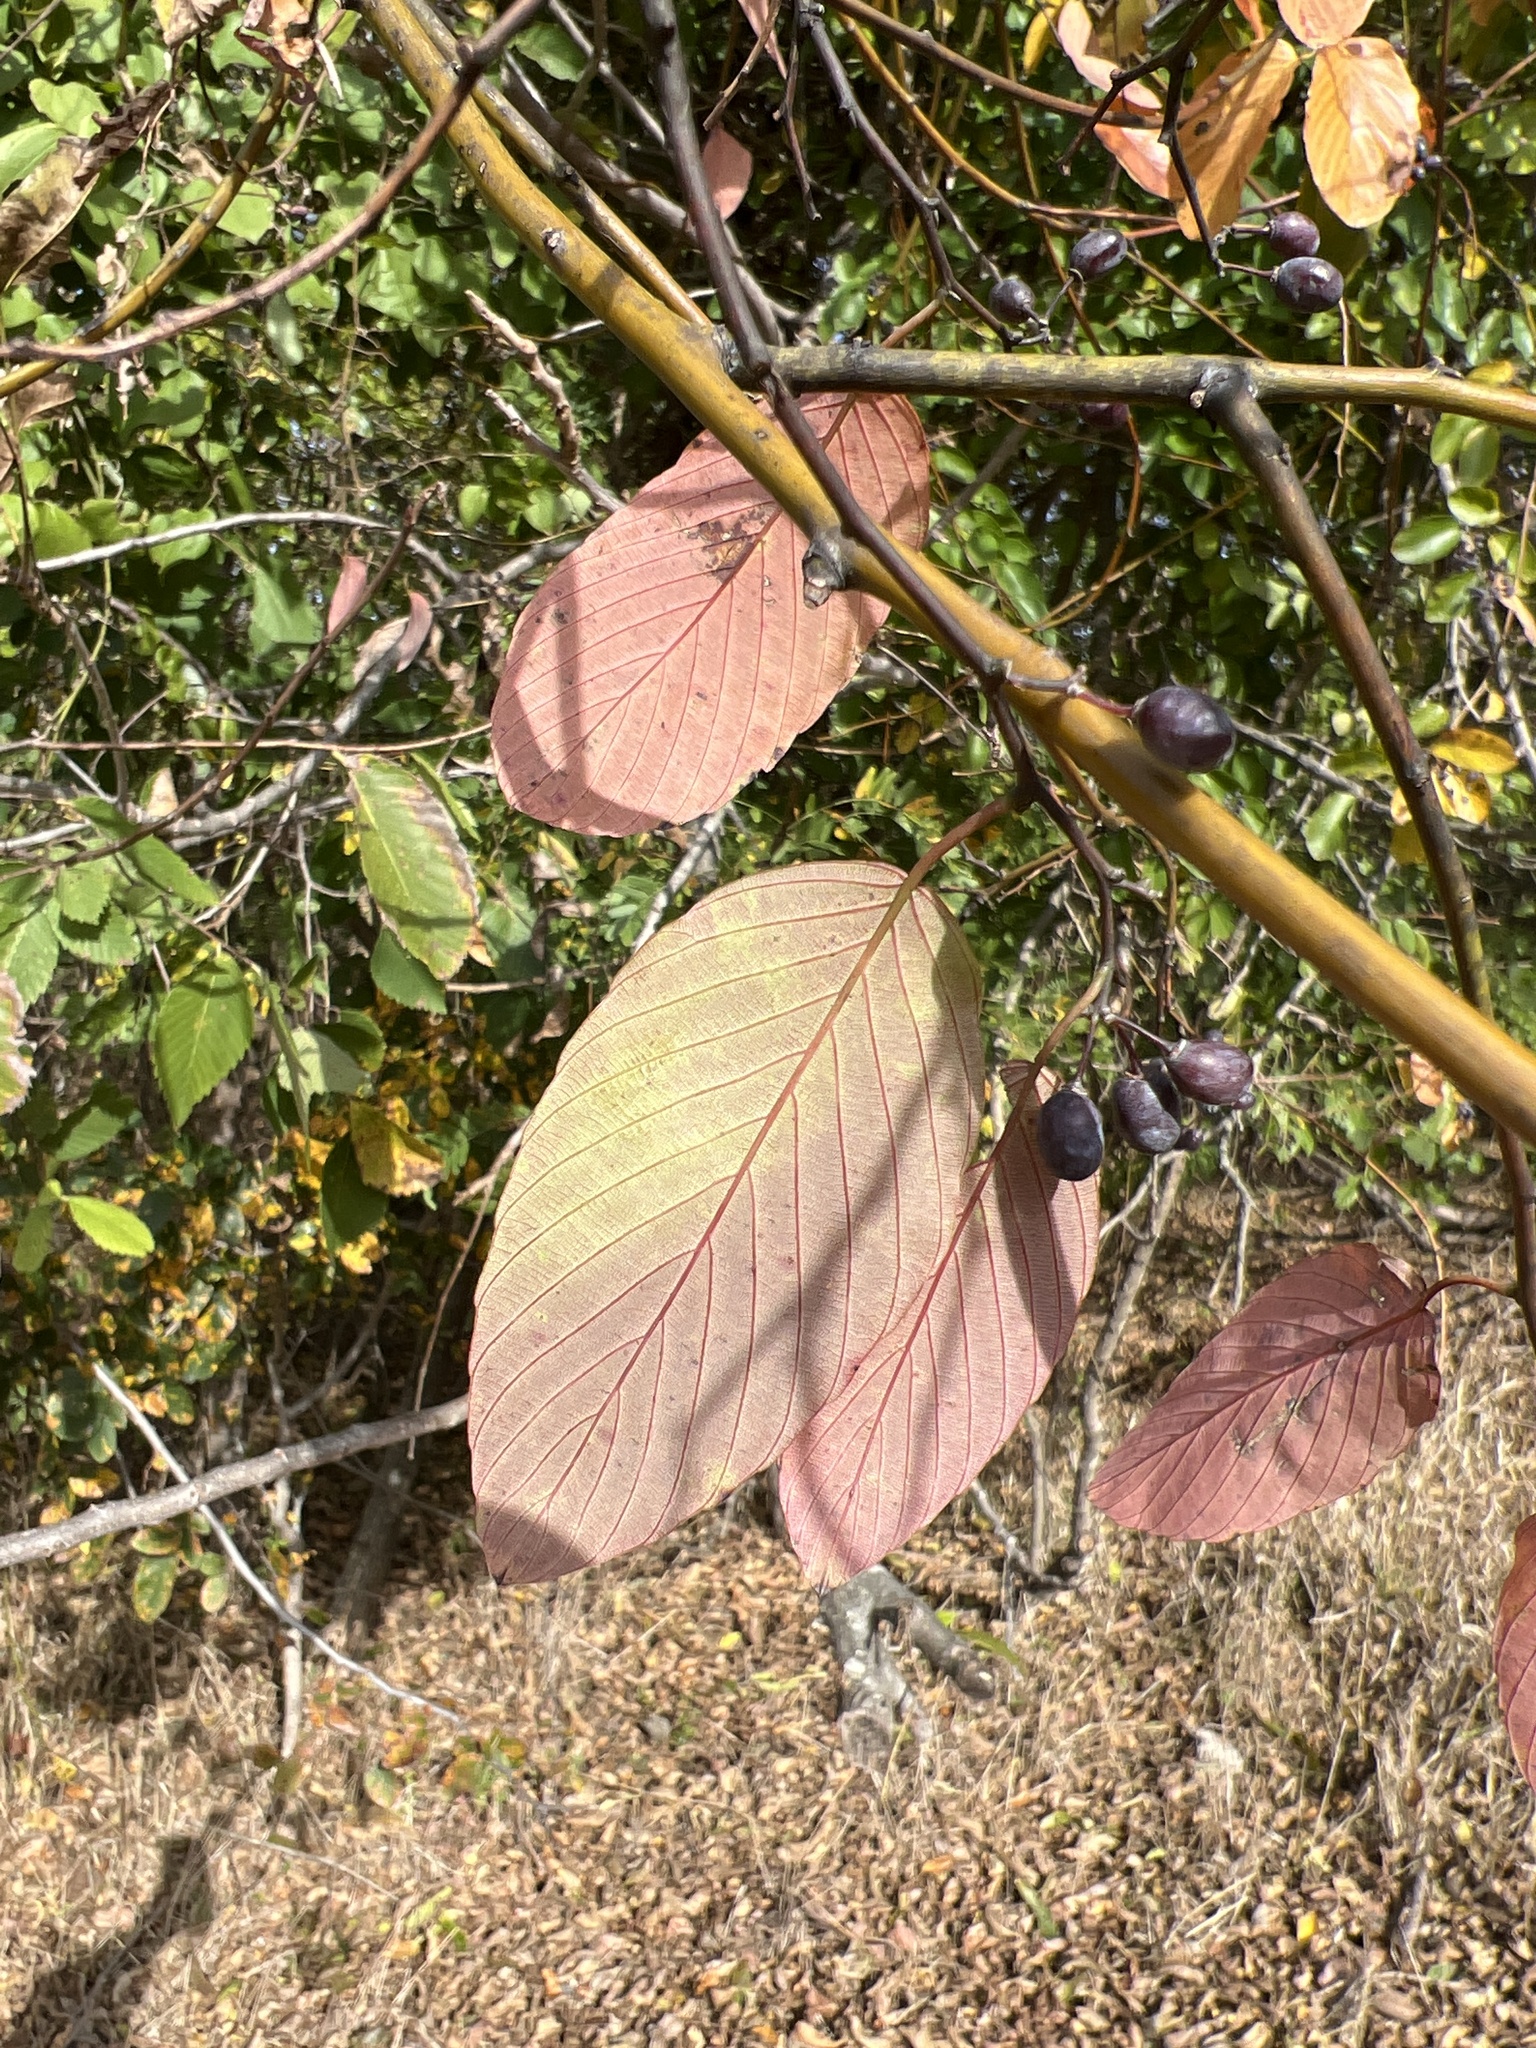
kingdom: Plantae
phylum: Tracheophyta
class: Magnoliopsida
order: Rosales
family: Rhamnaceae
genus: Berchemia
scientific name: Berchemia scandens
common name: Supplejack
